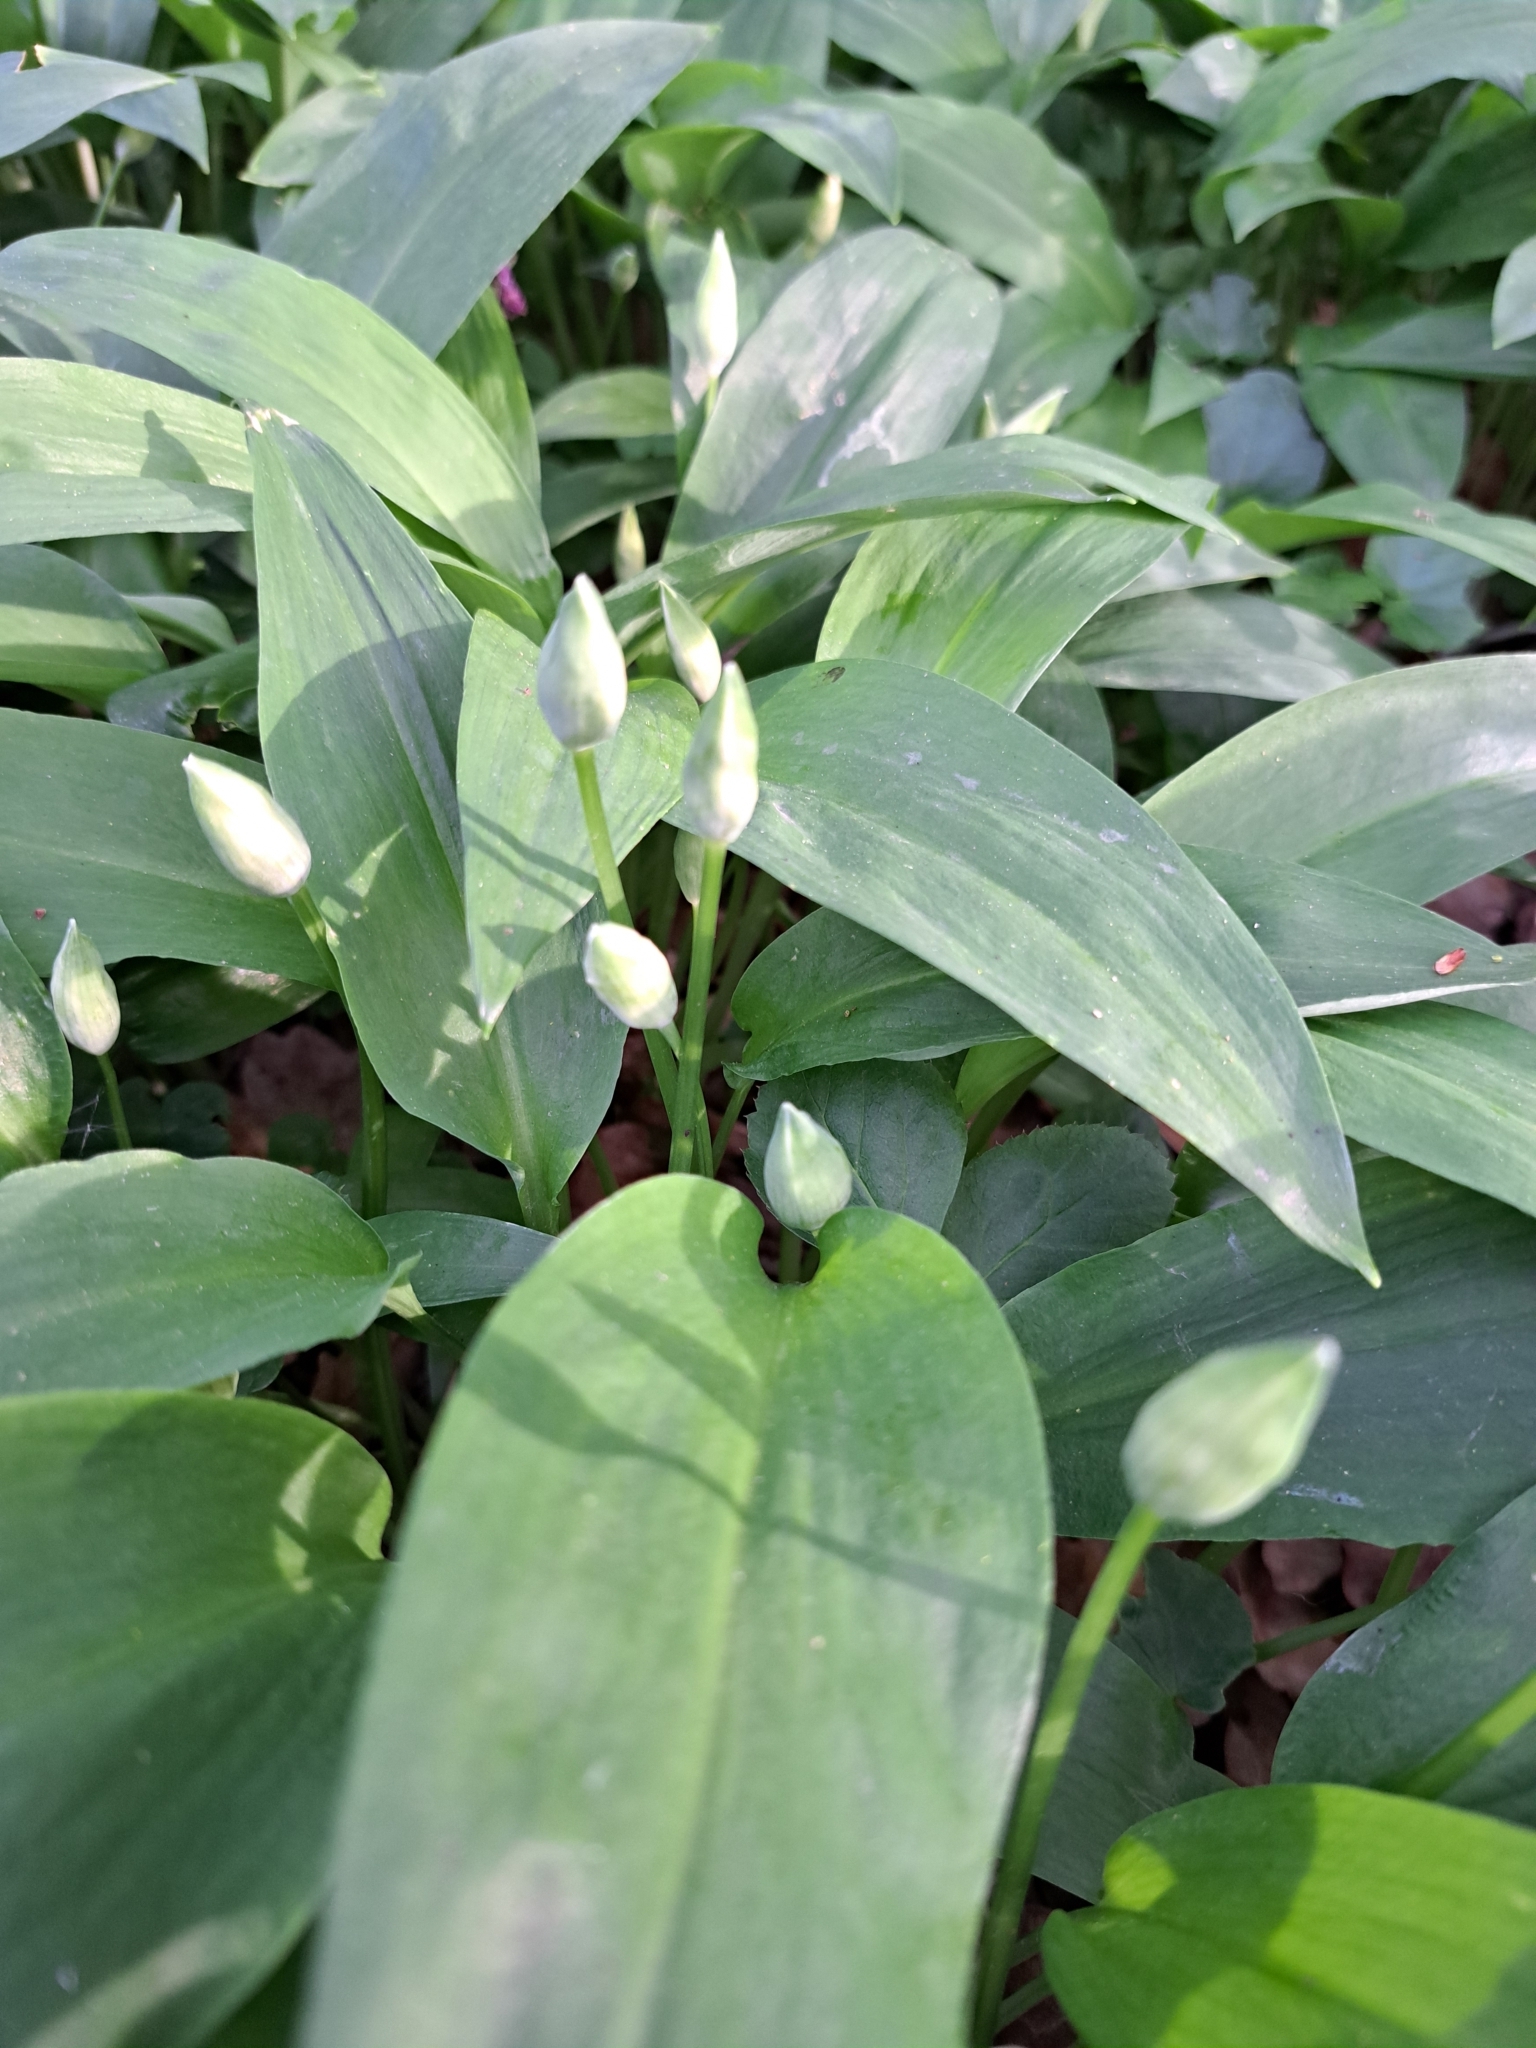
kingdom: Plantae
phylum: Tracheophyta
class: Liliopsida
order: Asparagales
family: Amaryllidaceae
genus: Allium
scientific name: Allium ursinum
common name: Ramsons
